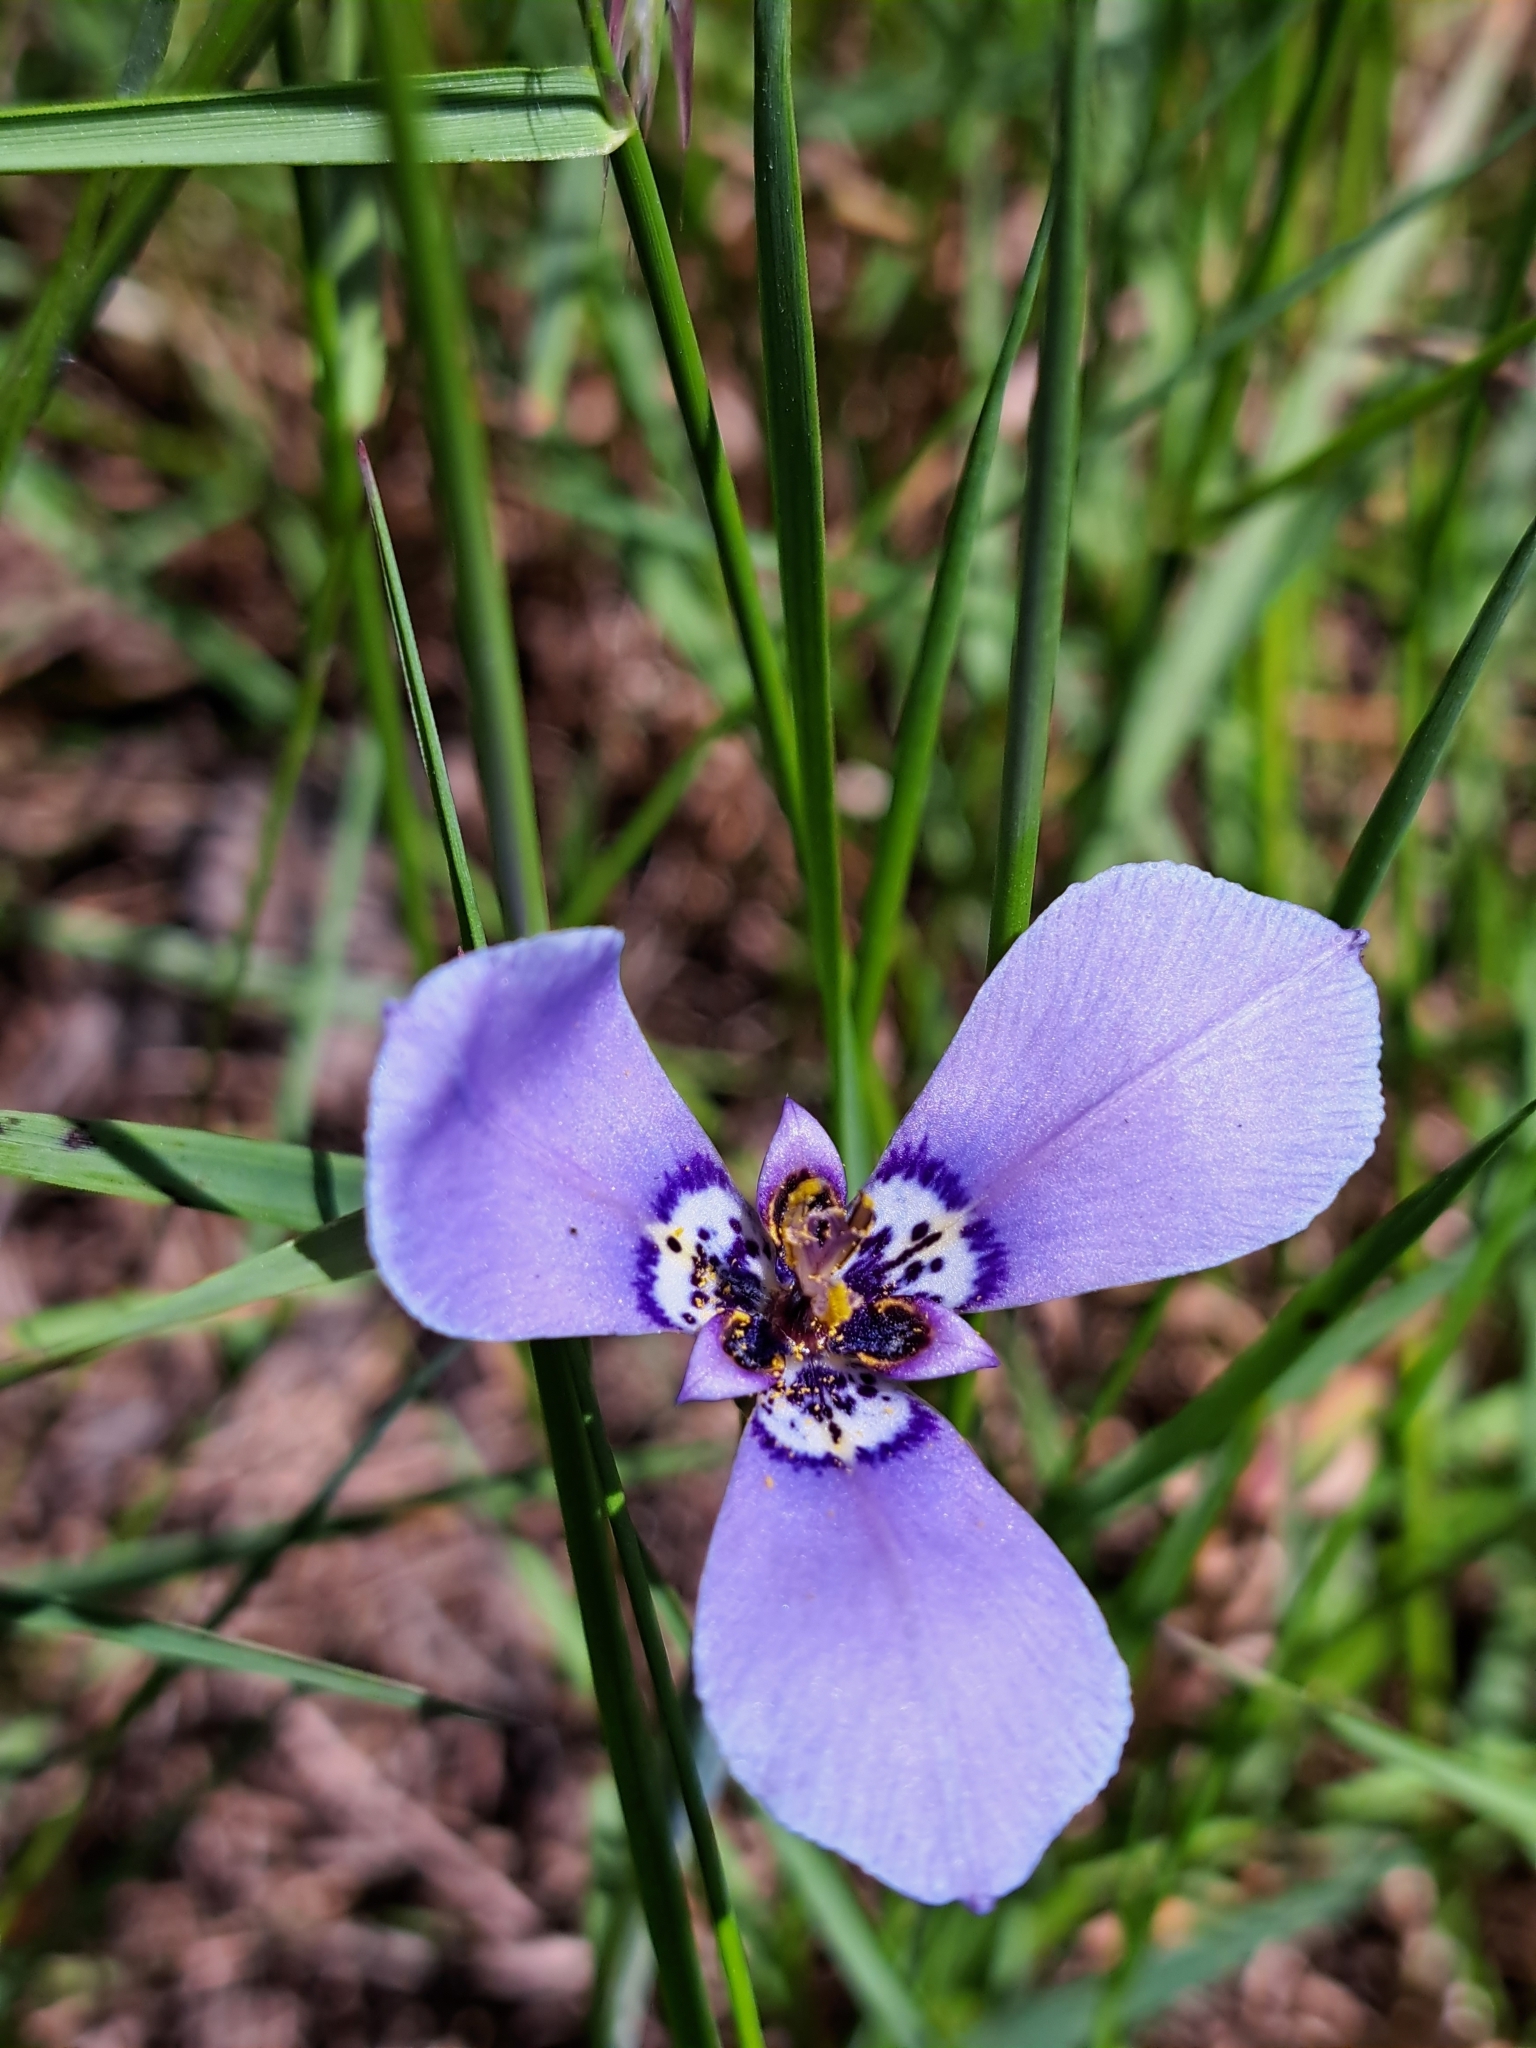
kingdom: Plantae
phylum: Tracheophyta
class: Liliopsida
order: Asparagales
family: Iridaceae
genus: Herbertia
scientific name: Herbertia lahue
